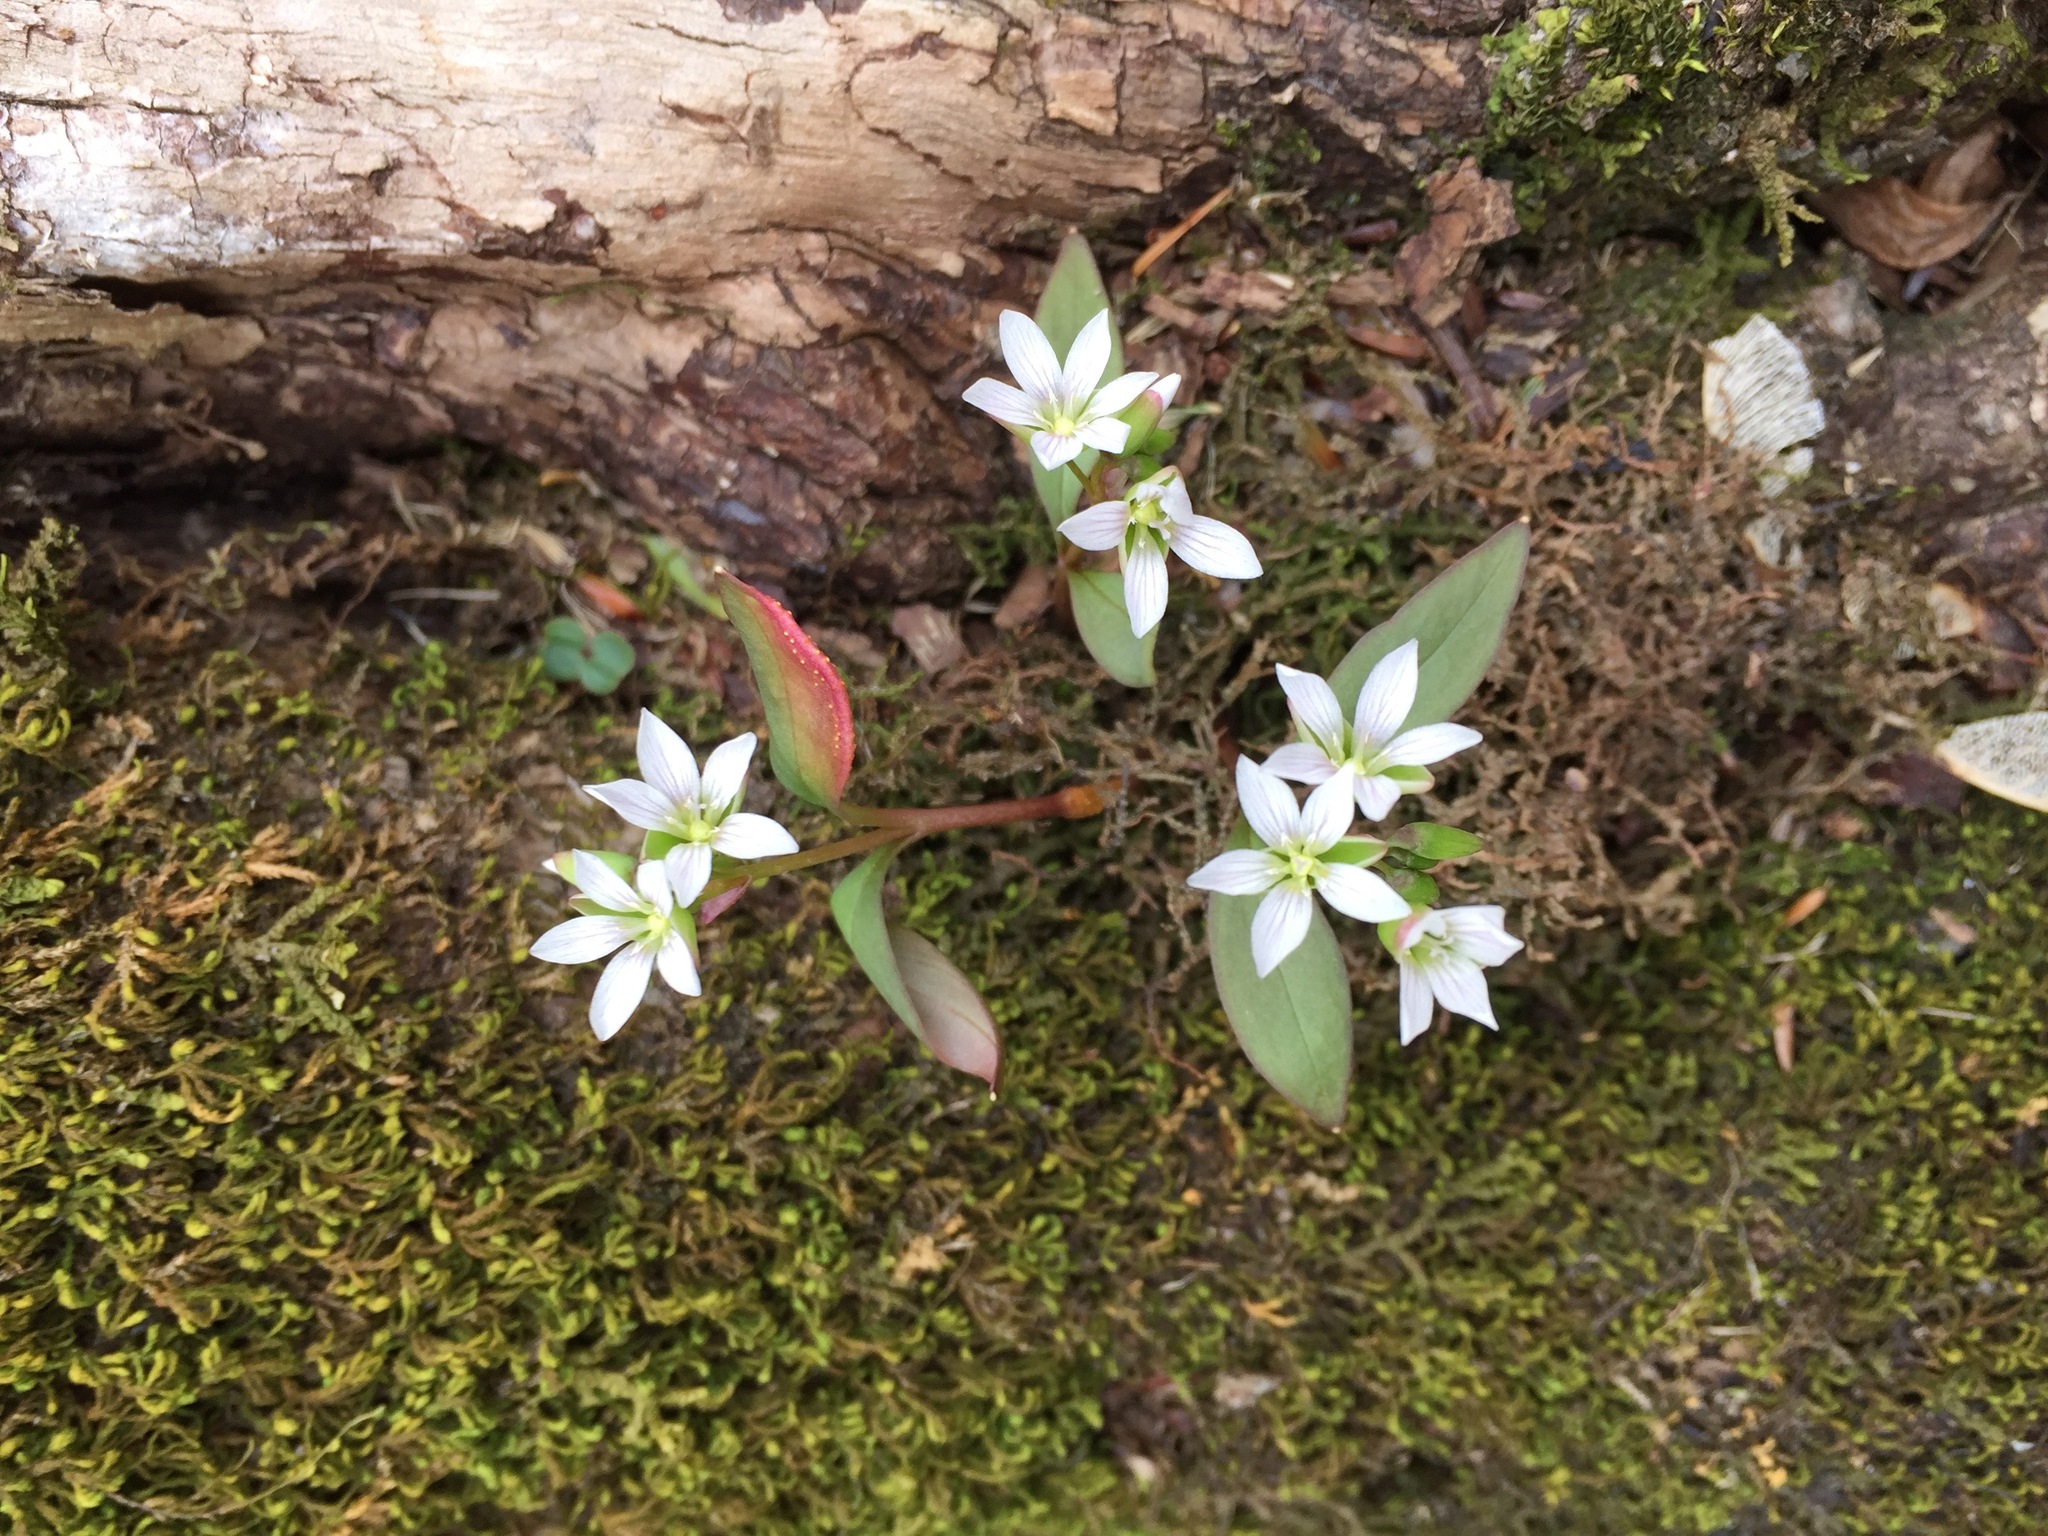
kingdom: Plantae
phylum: Tracheophyta
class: Magnoliopsida
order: Caryophyllales
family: Montiaceae
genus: Claytonia
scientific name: Claytonia caroliniana
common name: Carolina spring beauty
